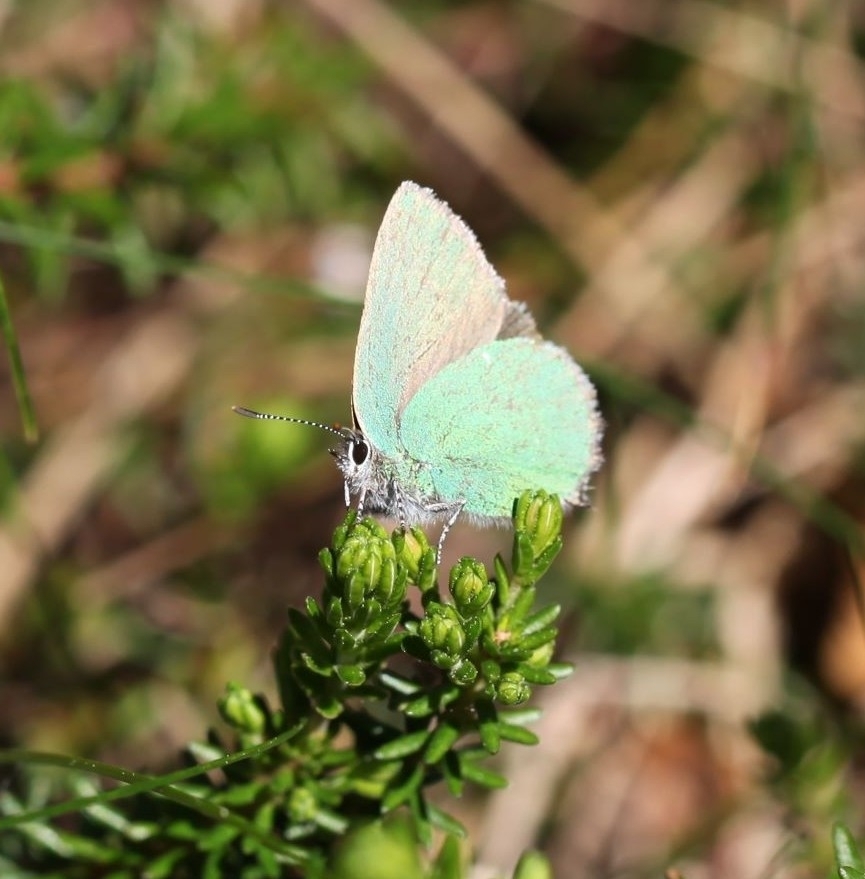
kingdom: Animalia
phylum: Arthropoda
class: Insecta
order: Lepidoptera
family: Lycaenidae
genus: Callophrys
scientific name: Callophrys rubi
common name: Green hairstreak
